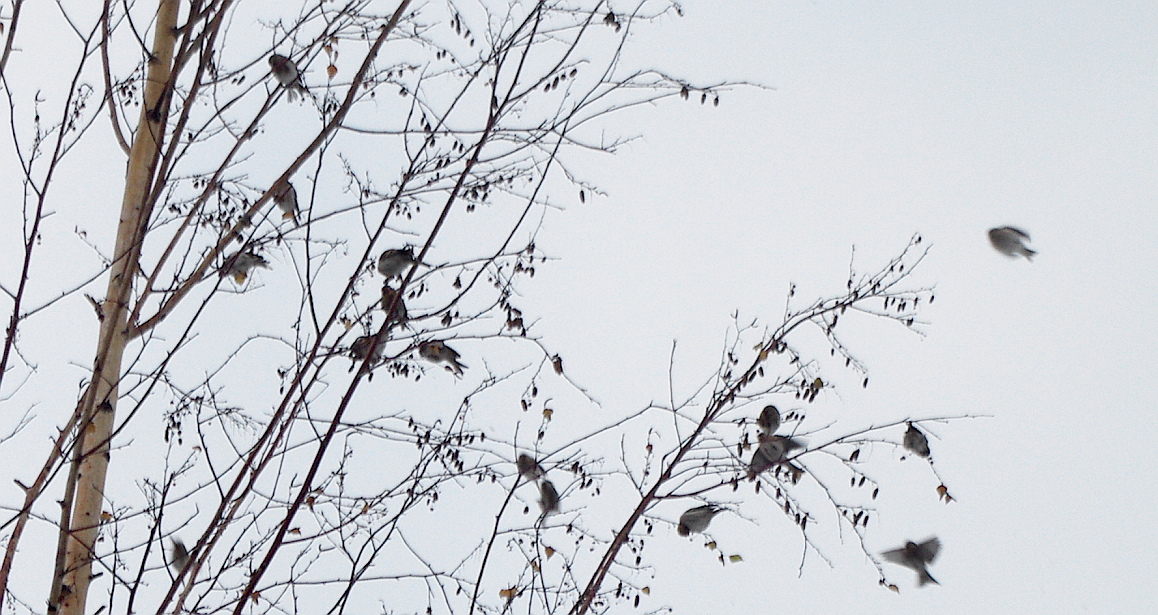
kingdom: Animalia
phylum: Chordata
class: Aves
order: Passeriformes
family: Fringillidae
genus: Acanthis
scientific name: Acanthis flammea
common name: Common redpoll
